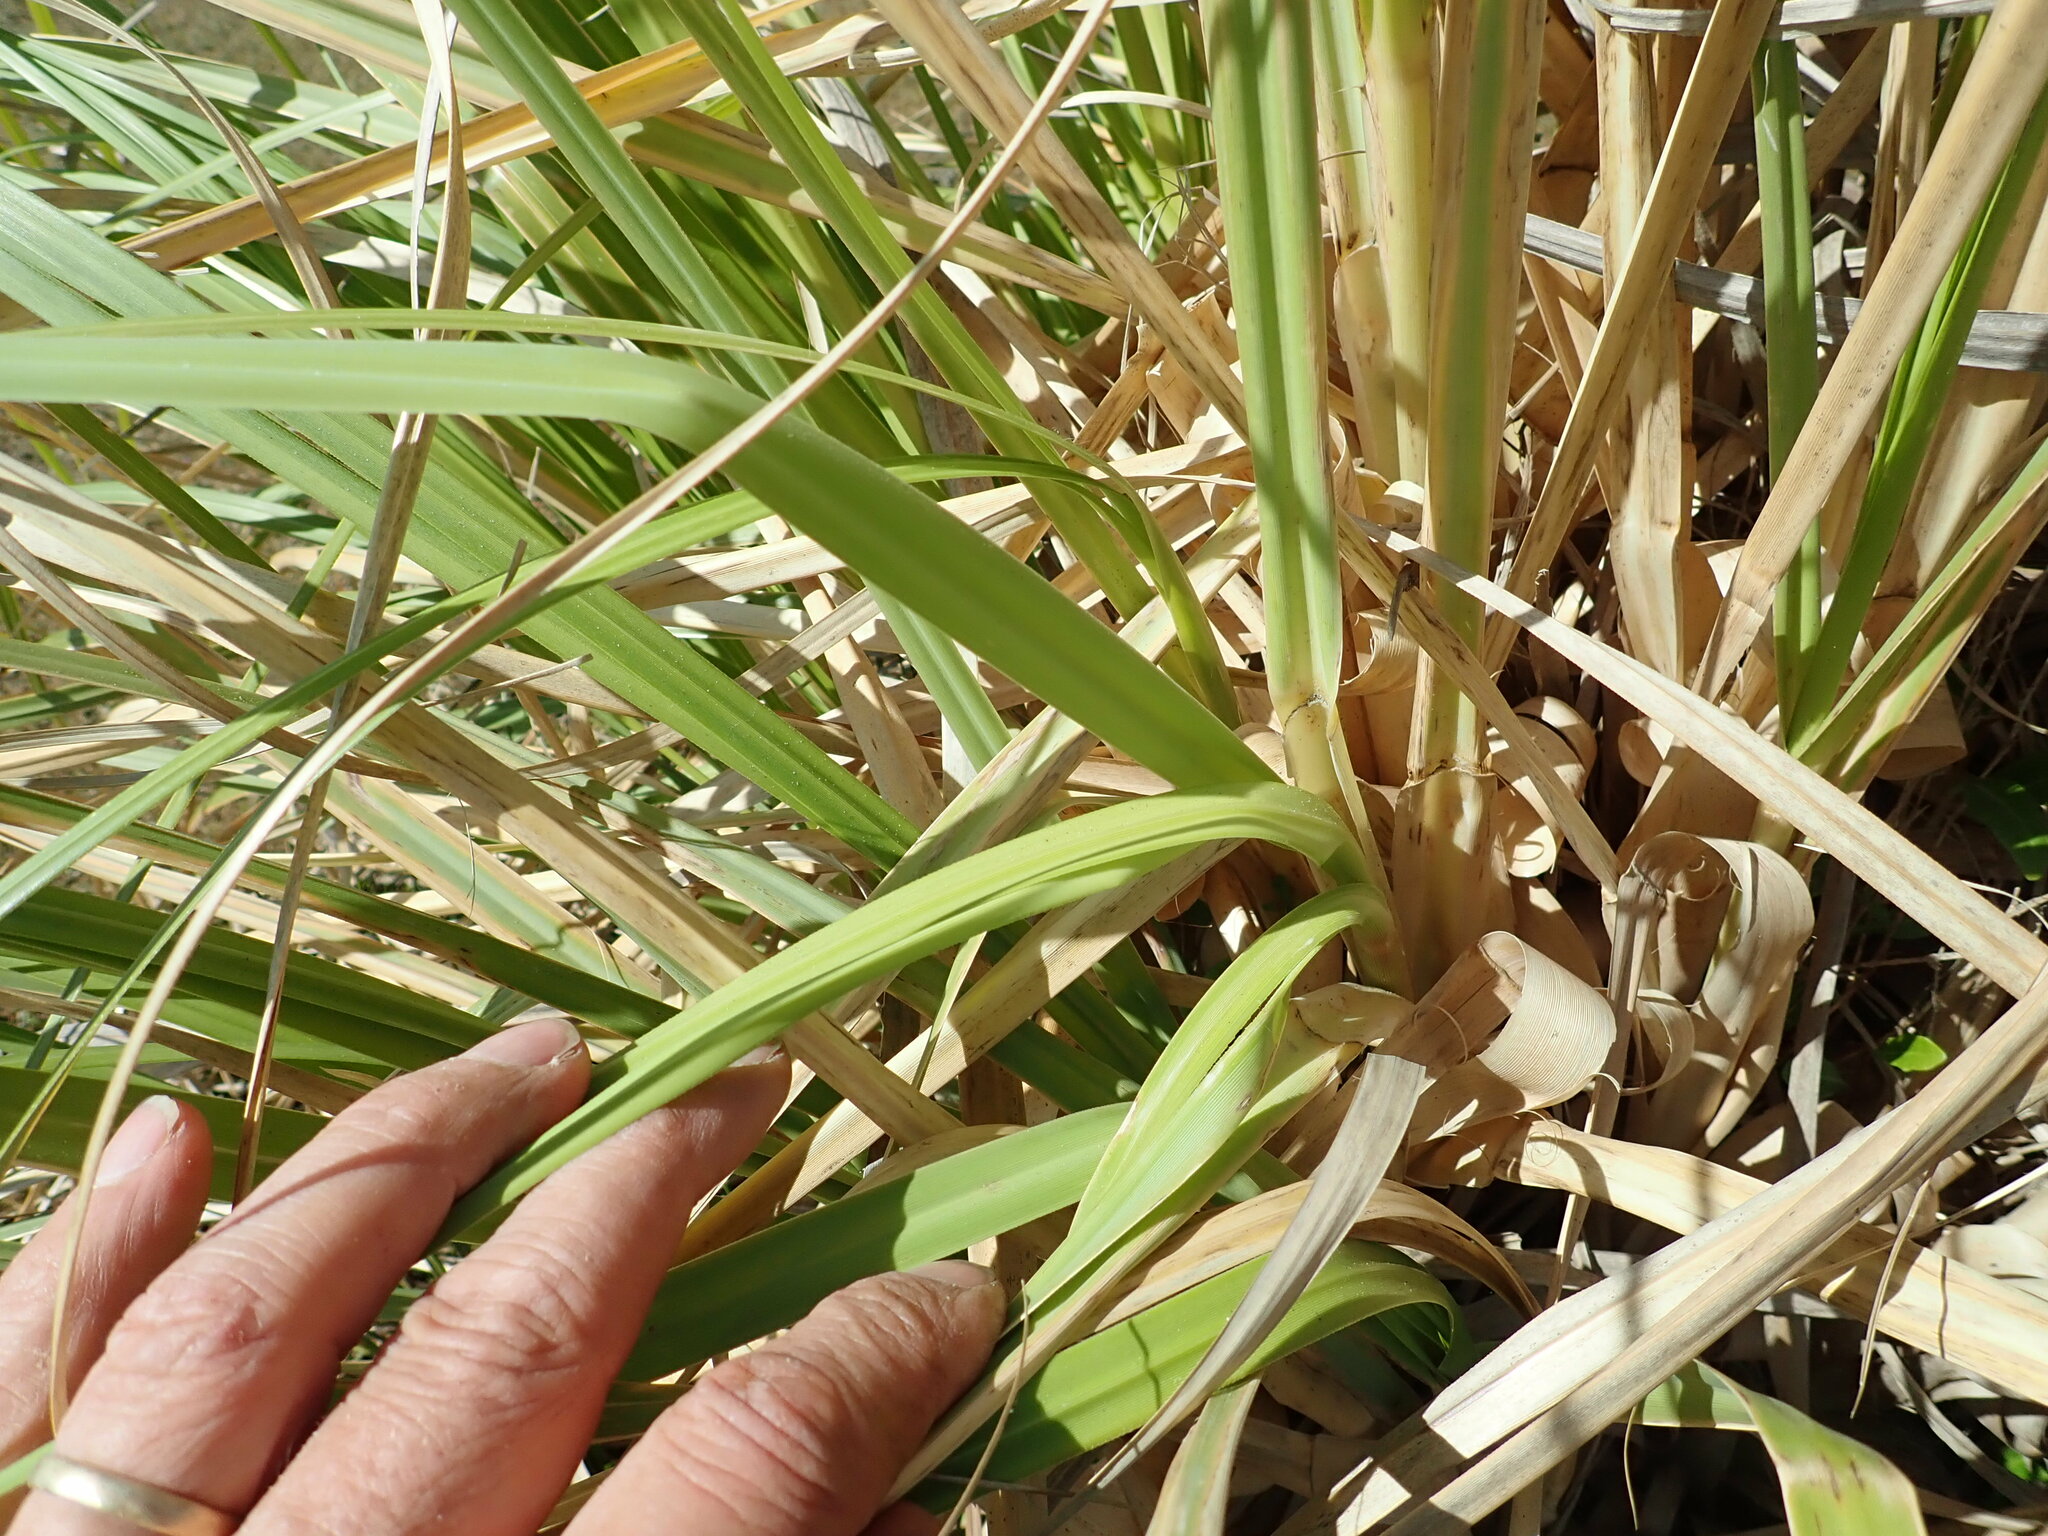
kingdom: Plantae
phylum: Tracheophyta
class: Liliopsida
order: Poales
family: Poaceae
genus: Cortaderia
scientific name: Cortaderia selloana
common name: Uruguayan pampas grass
